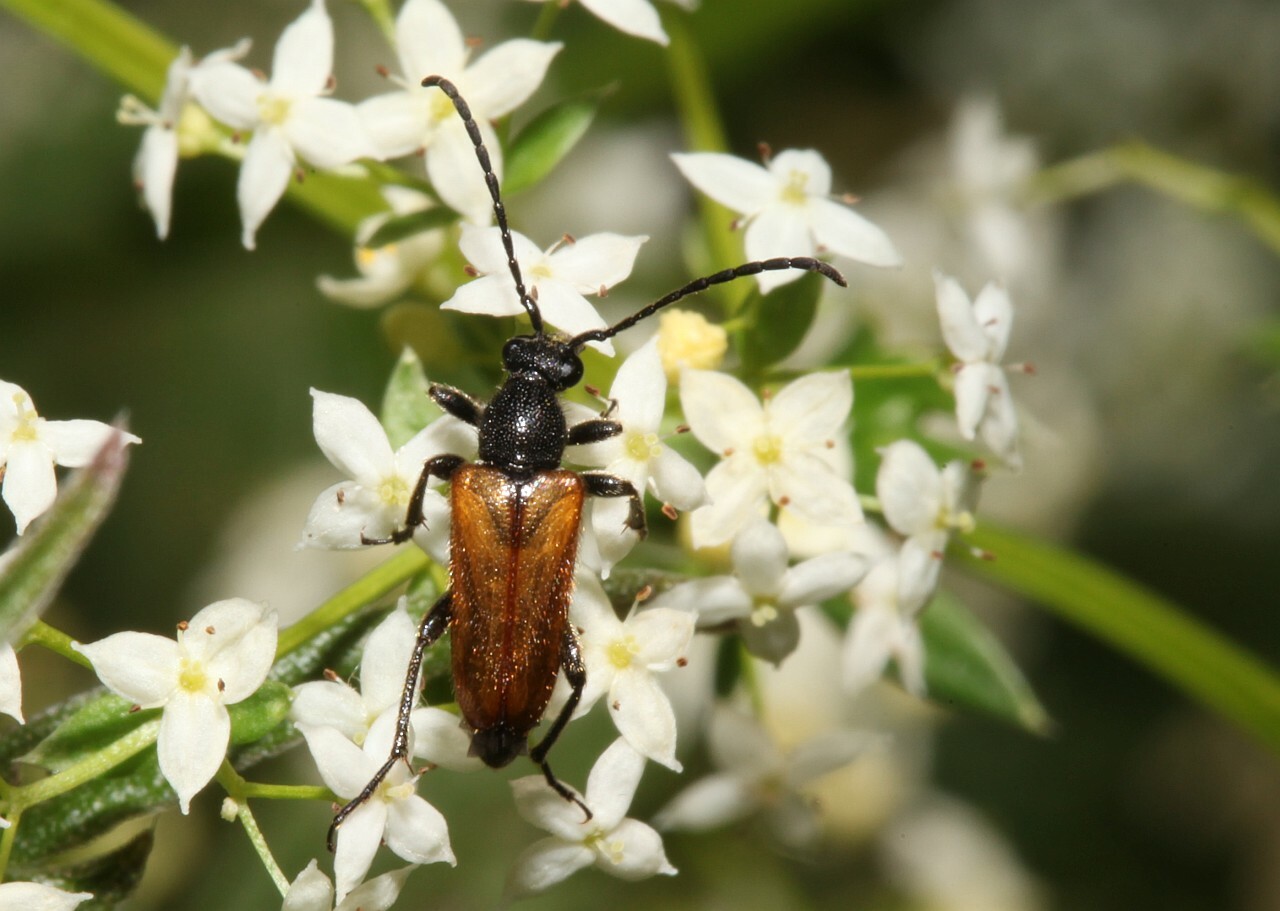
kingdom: Animalia
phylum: Arthropoda
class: Insecta
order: Coleoptera
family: Cerambycidae
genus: Pseudovadonia
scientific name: Pseudovadonia livida
